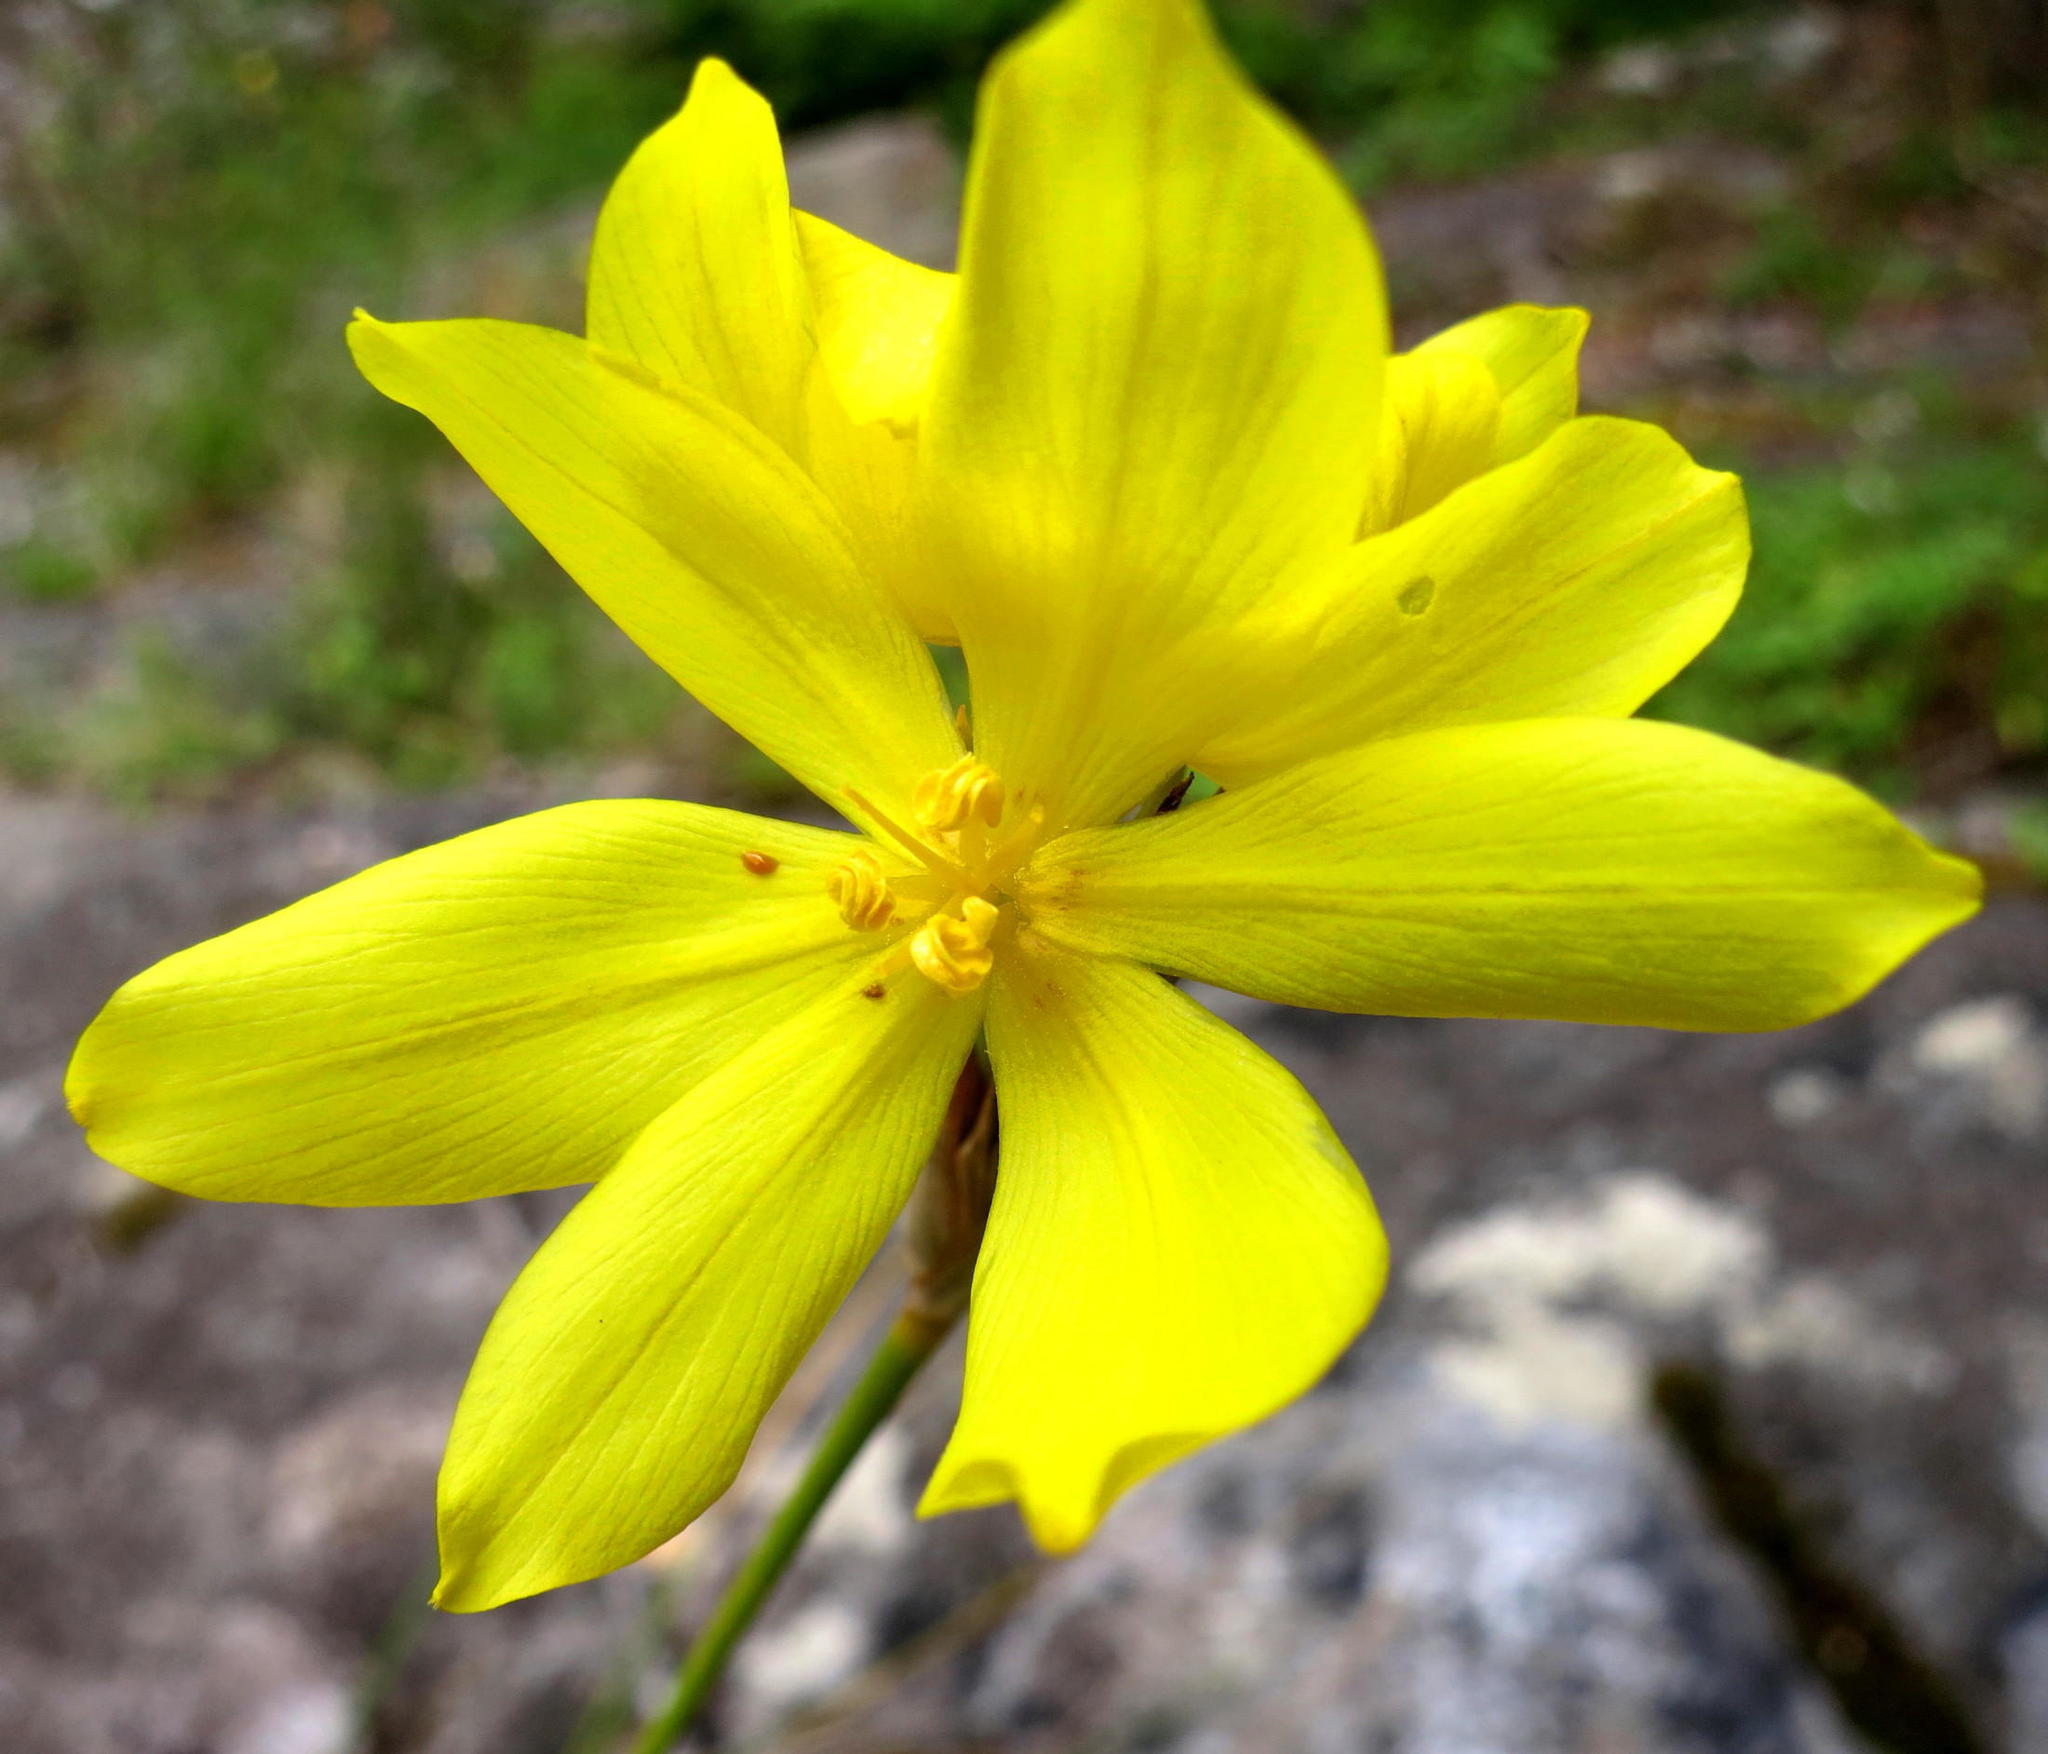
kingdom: Plantae
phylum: Tracheophyta
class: Liliopsida
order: Asparagales
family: Iridaceae
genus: Bobartia
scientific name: Bobartia aphylla
